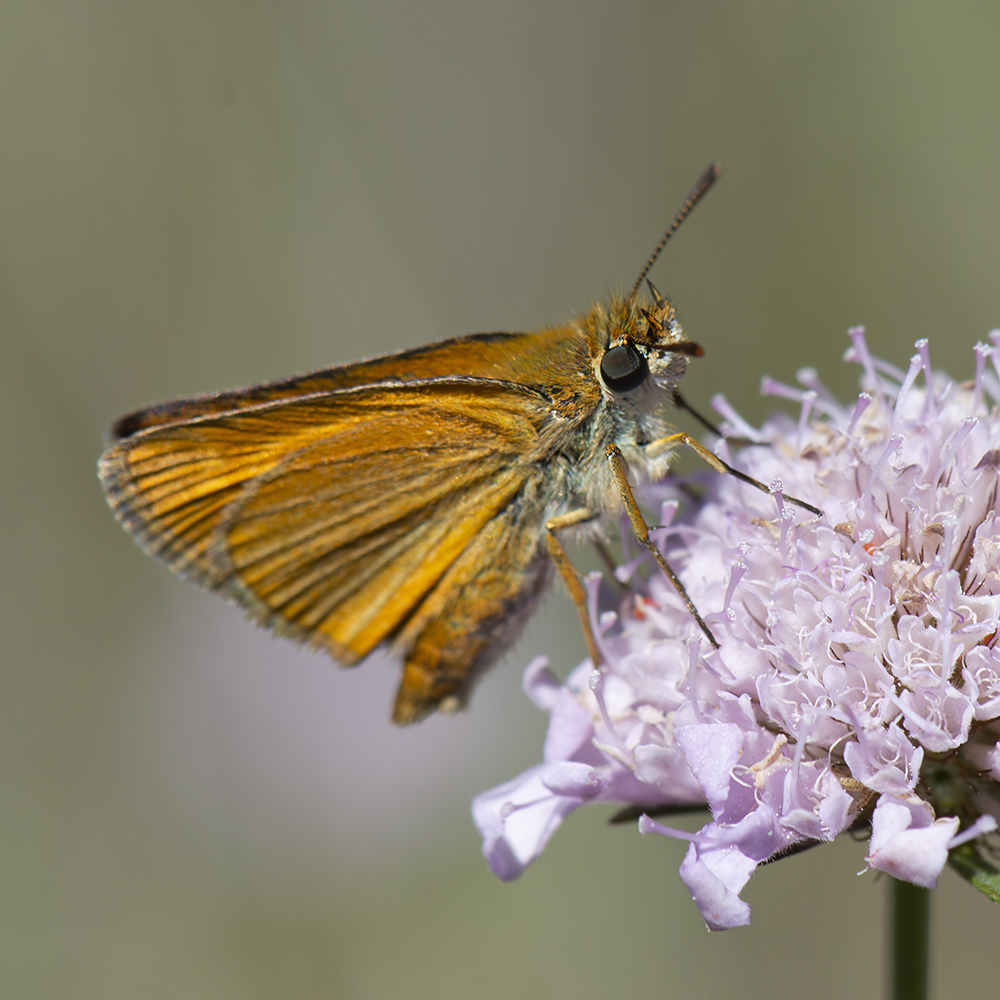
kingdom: Animalia
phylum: Arthropoda
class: Insecta
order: Lepidoptera
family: Hesperiidae
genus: Thymelicus
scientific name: Thymelicus acteon
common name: Lulworth skipper
